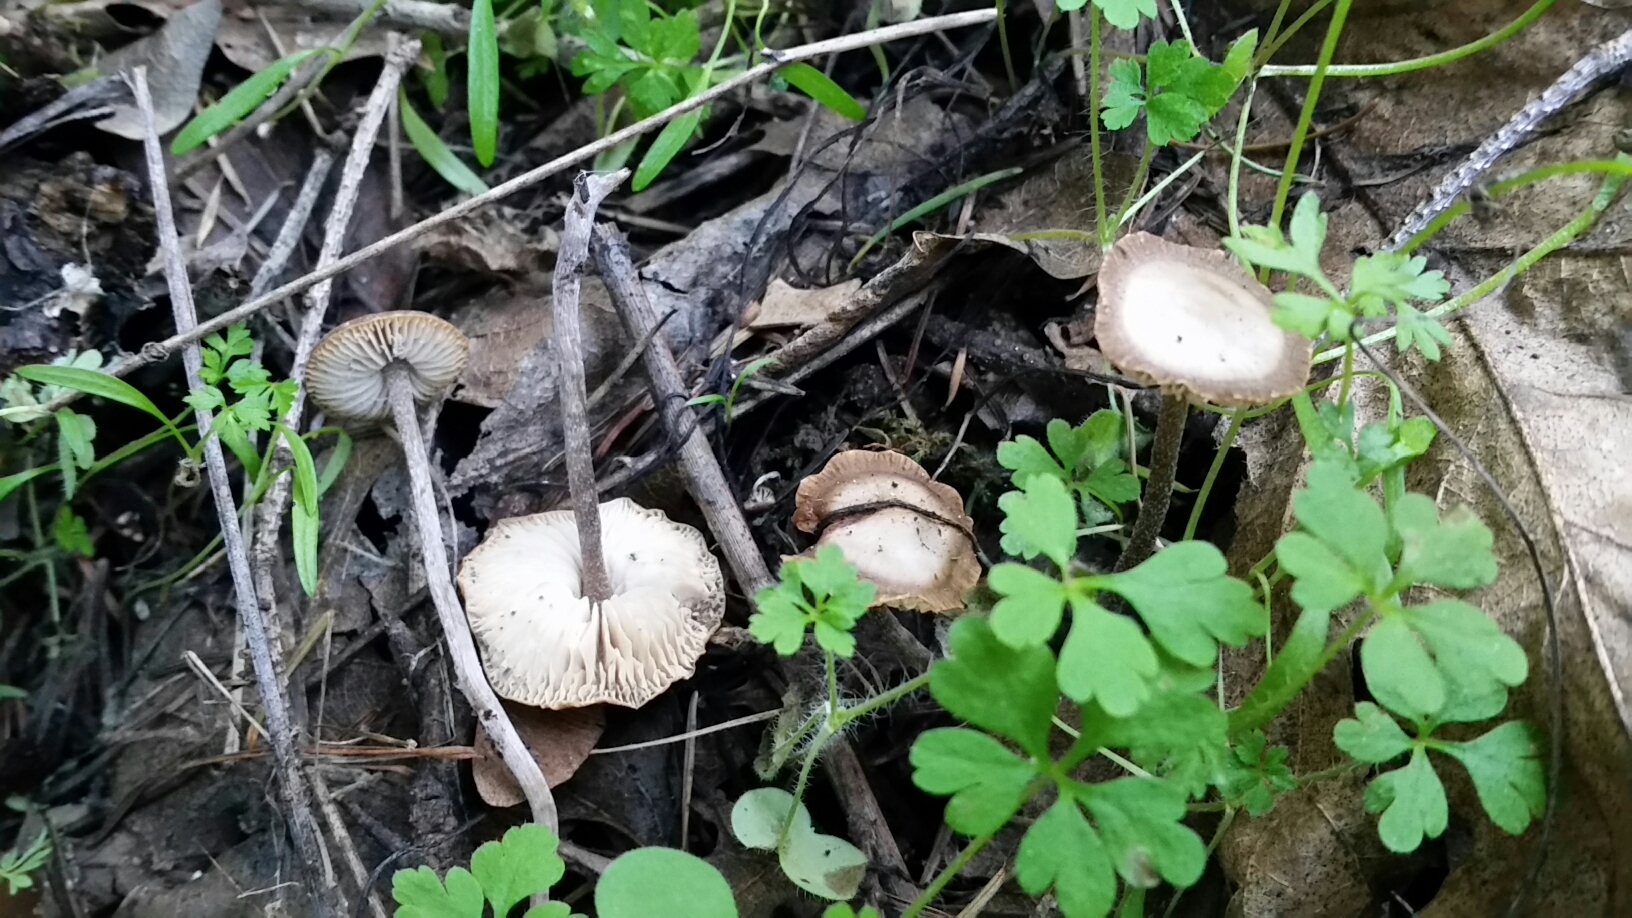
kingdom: Fungi
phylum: Basidiomycota
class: Agaricomycetes
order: Agaricales
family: Lyophyllaceae
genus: Myochromella
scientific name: Myochromella boudieri
